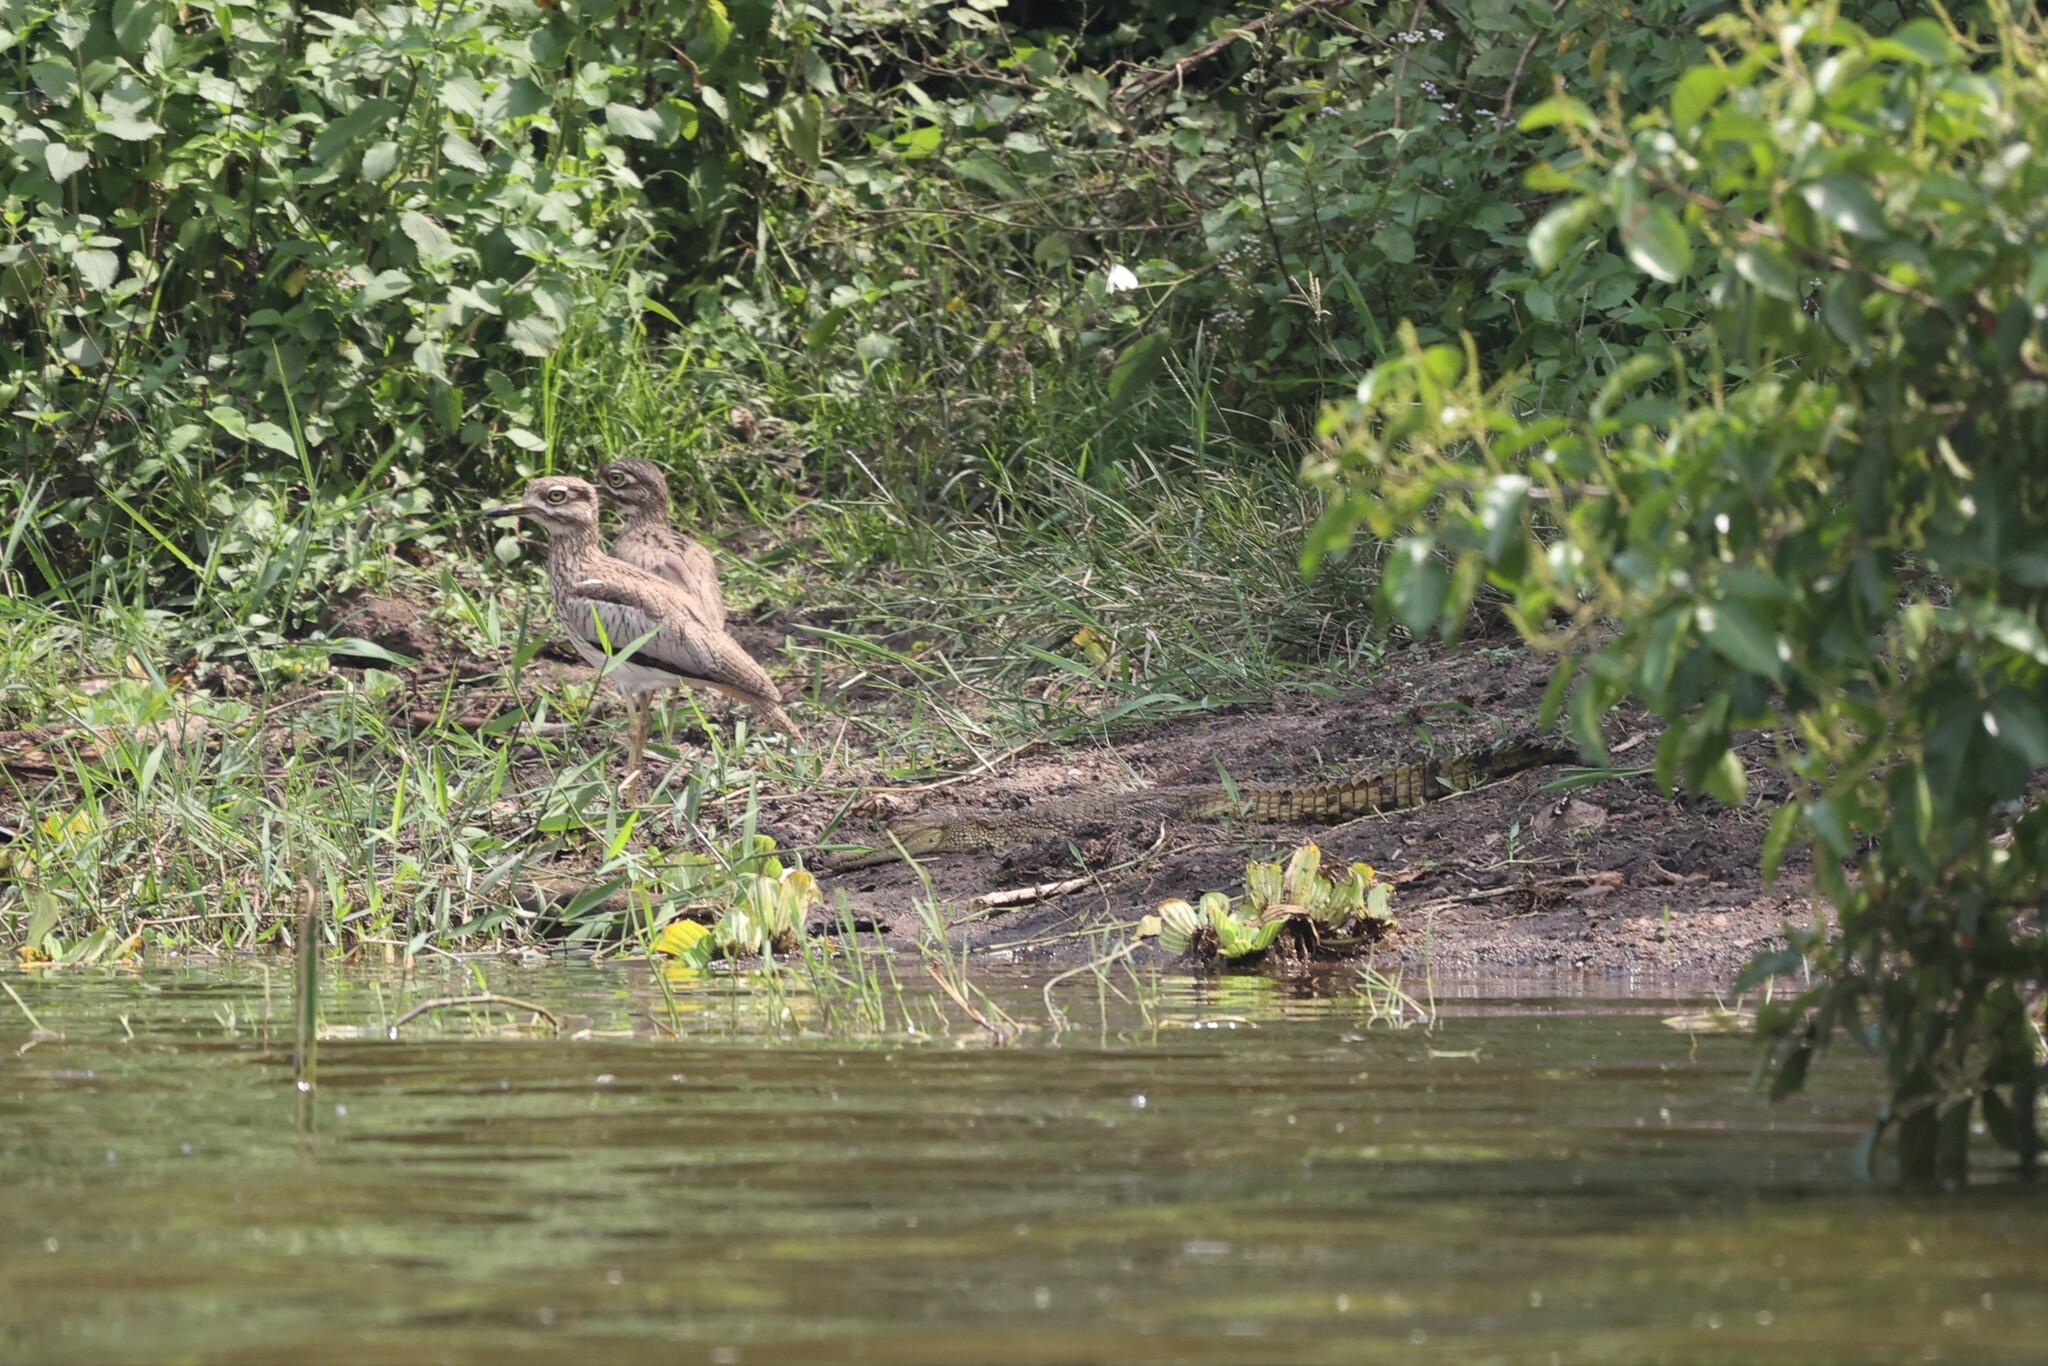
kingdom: Animalia
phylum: Chordata
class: Crocodylia
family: Crocodylidae
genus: Crocodylus
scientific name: Crocodylus niloticus
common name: Nile crocodile
